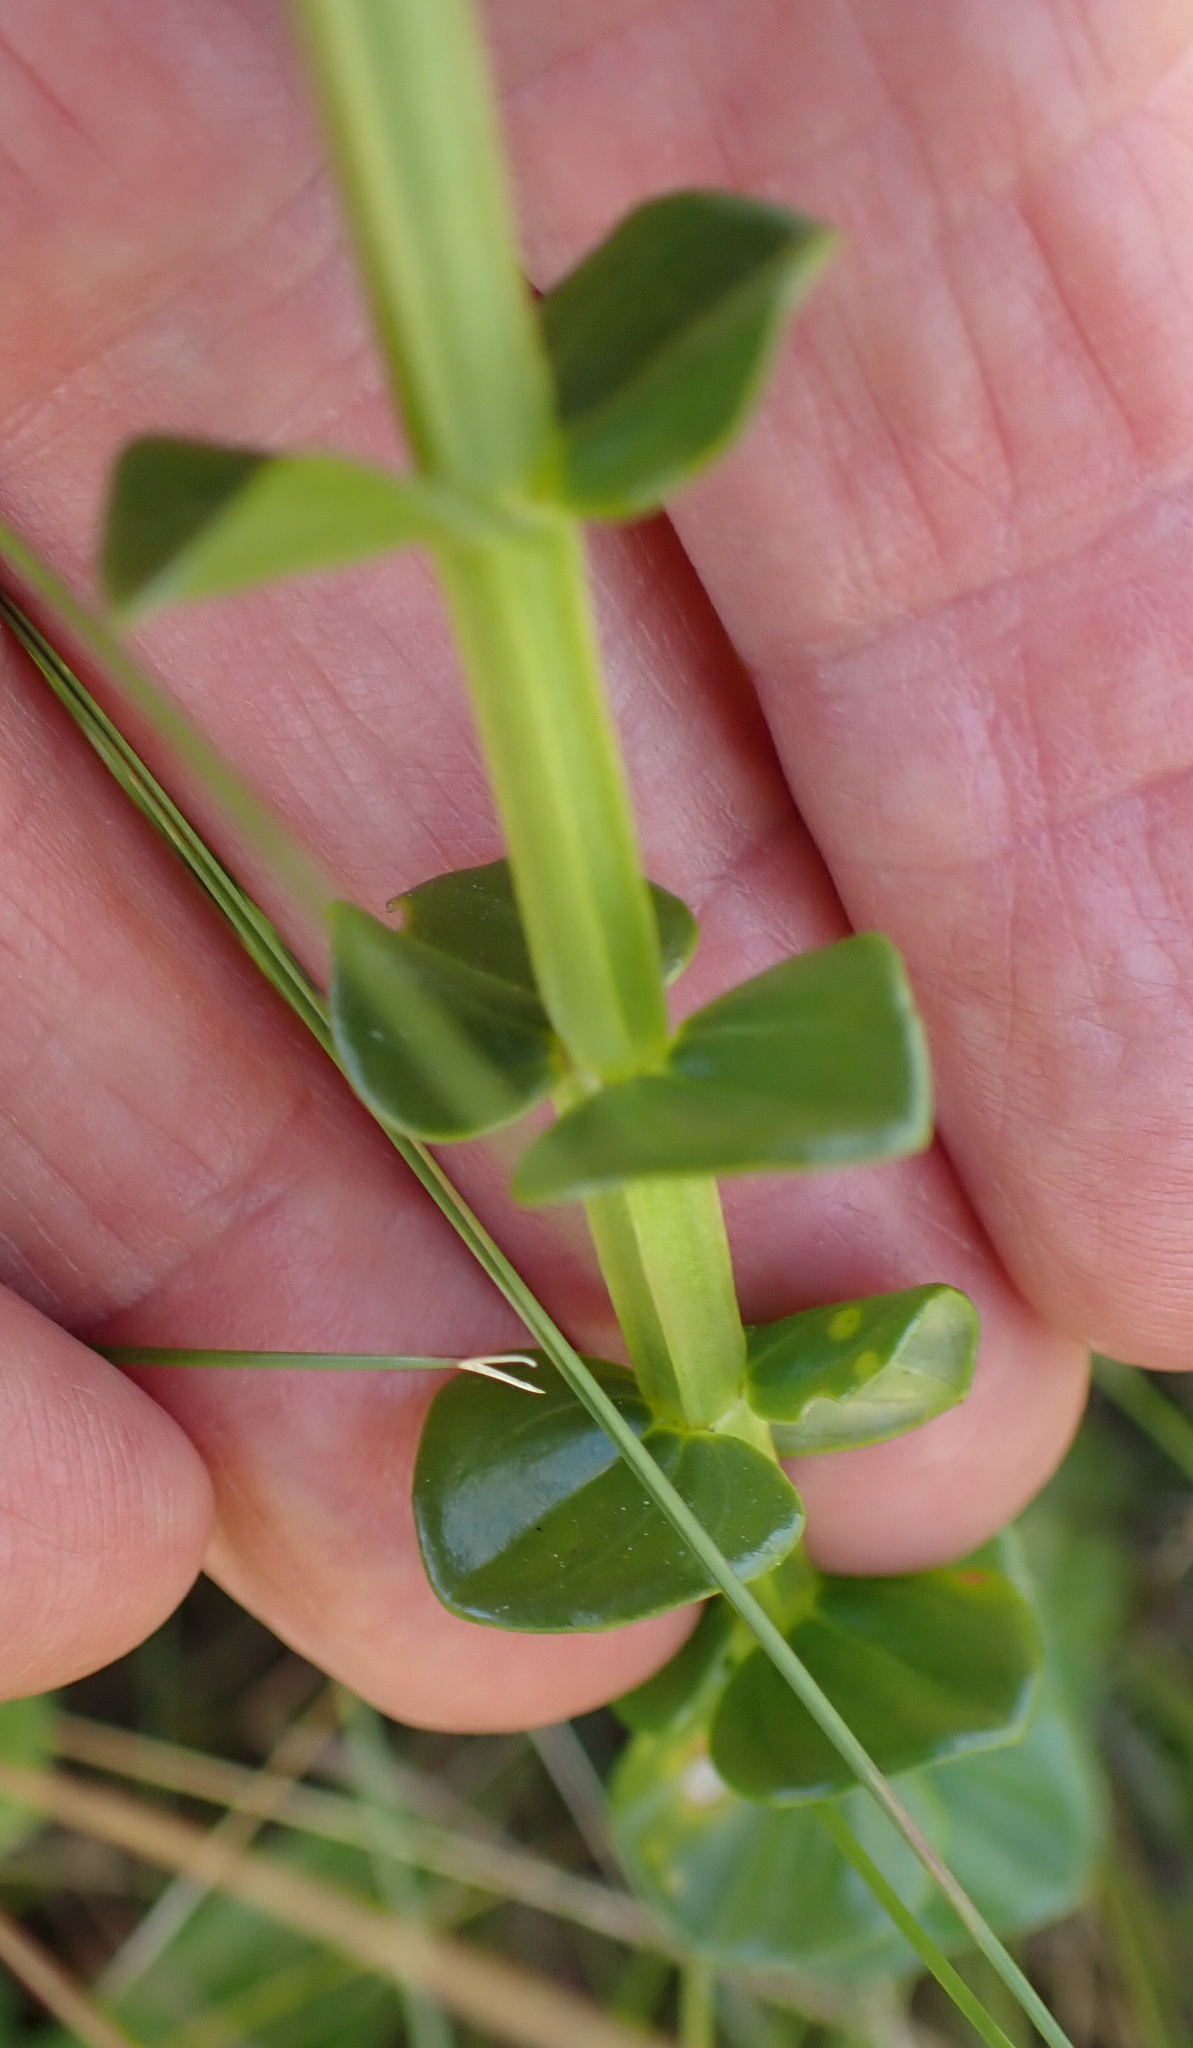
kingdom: Plantae
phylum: Tracheophyta
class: Magnoliopsida
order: Gentianales
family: Gentianaceae
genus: Sebaea
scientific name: Sebaea natalensis
